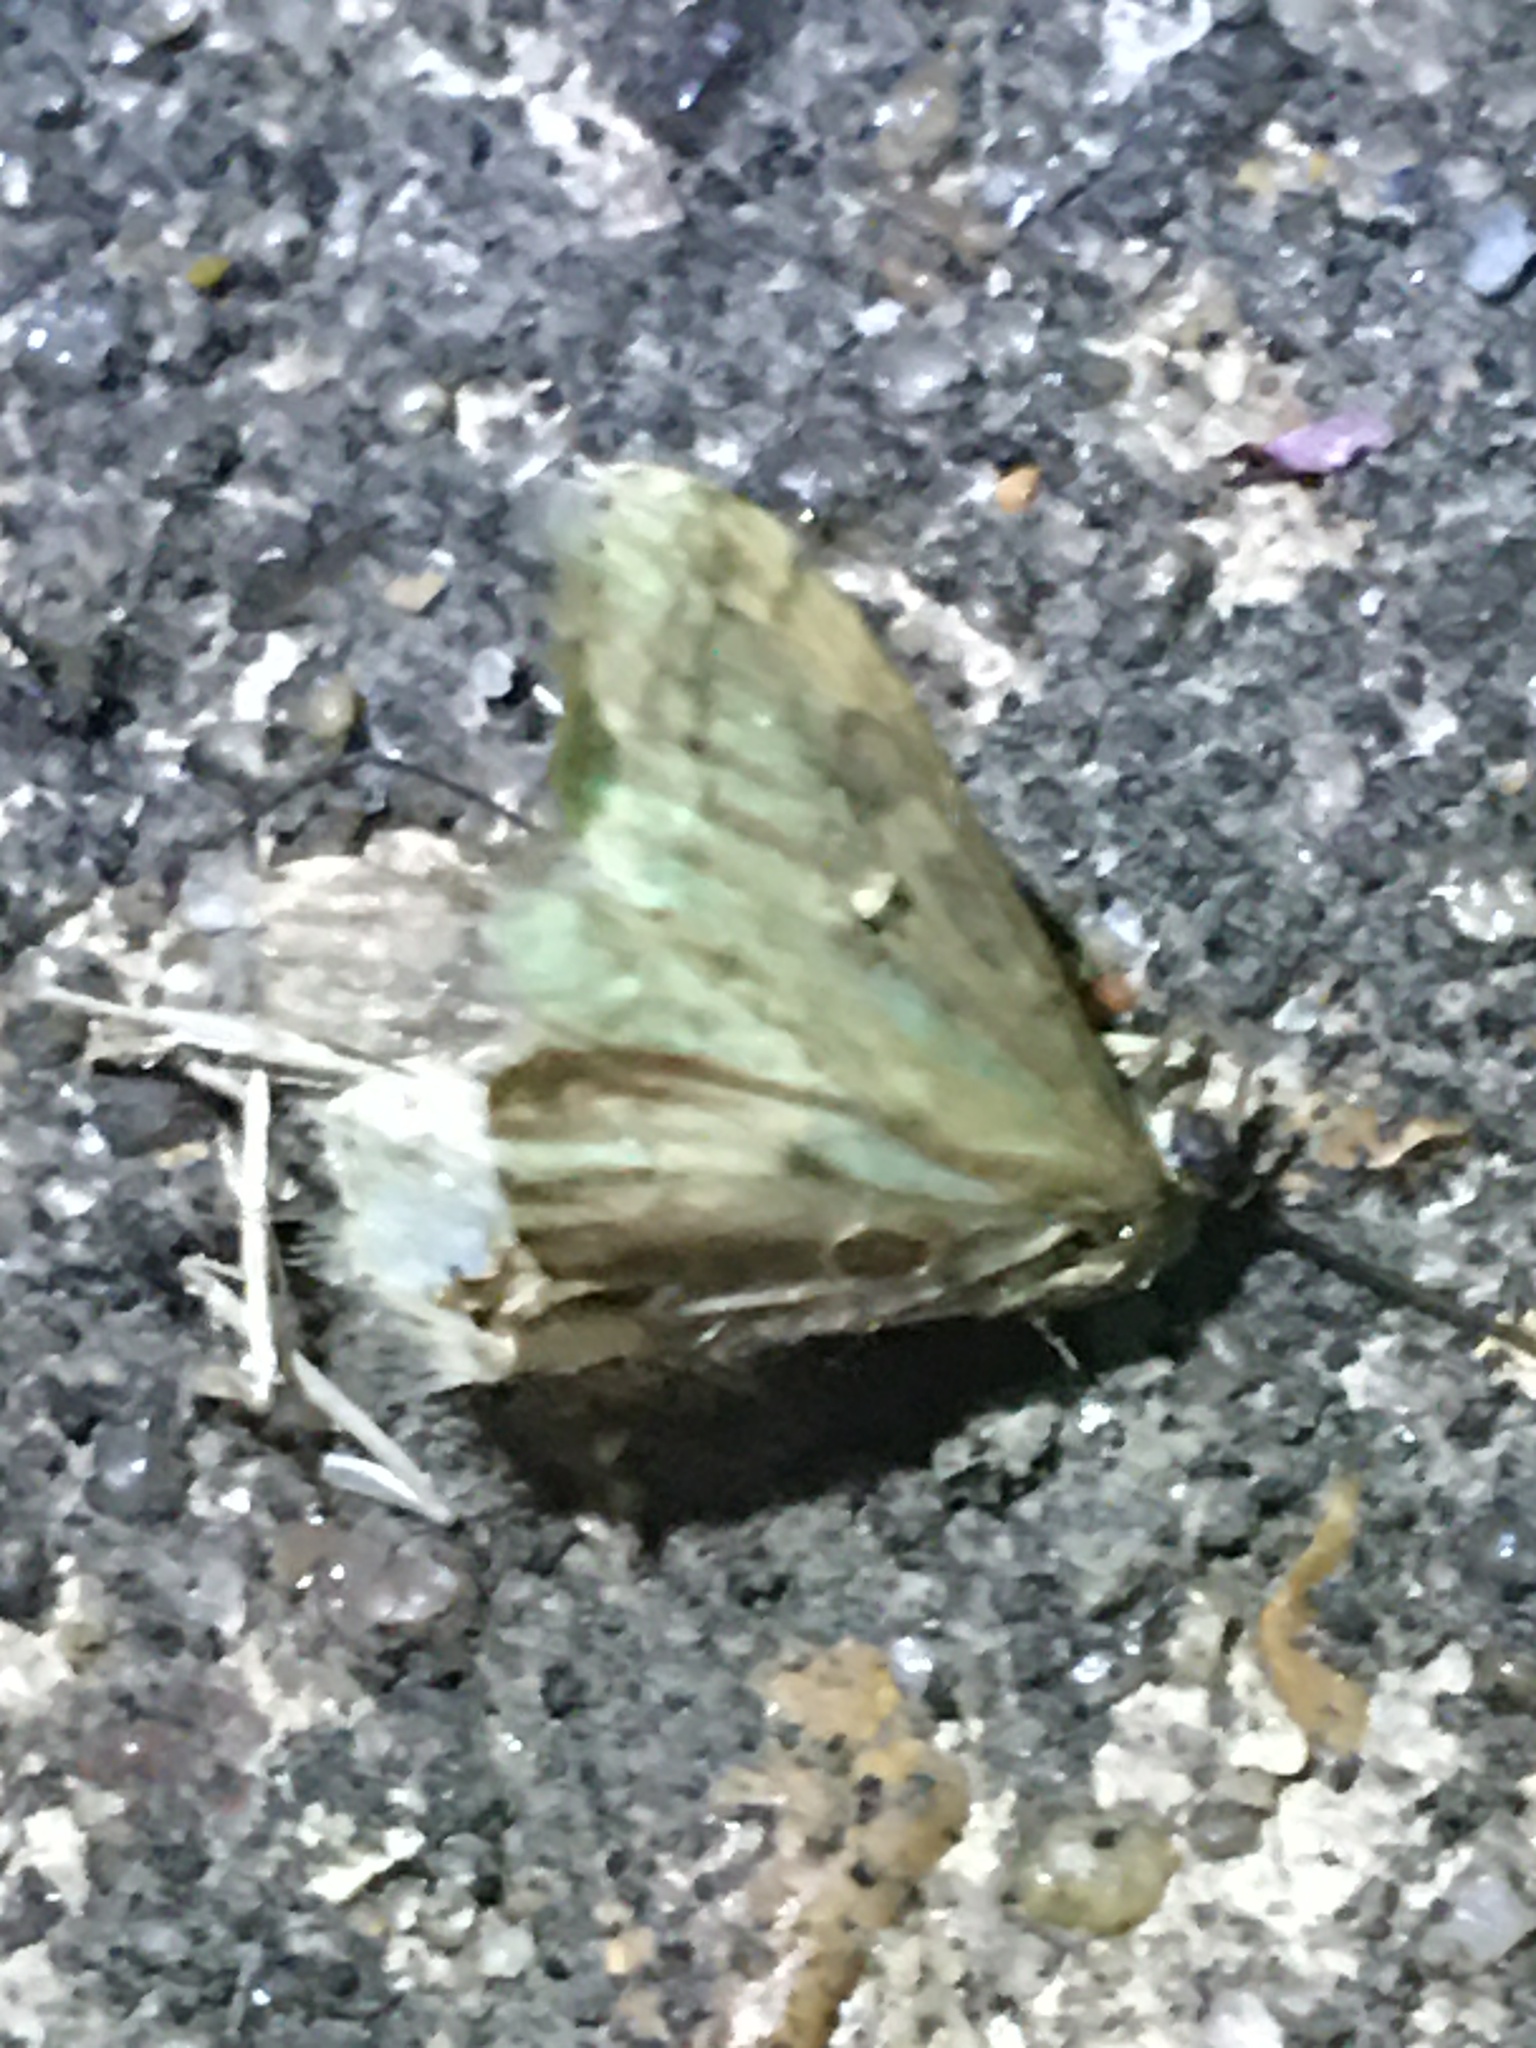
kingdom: Animalia
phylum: Arthropoda
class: Insecta
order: Lepidoptera
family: Crambidae
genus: Crocidophora
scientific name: Crocidophora tuberculalis
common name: Pale-winged crocidiphora moth
